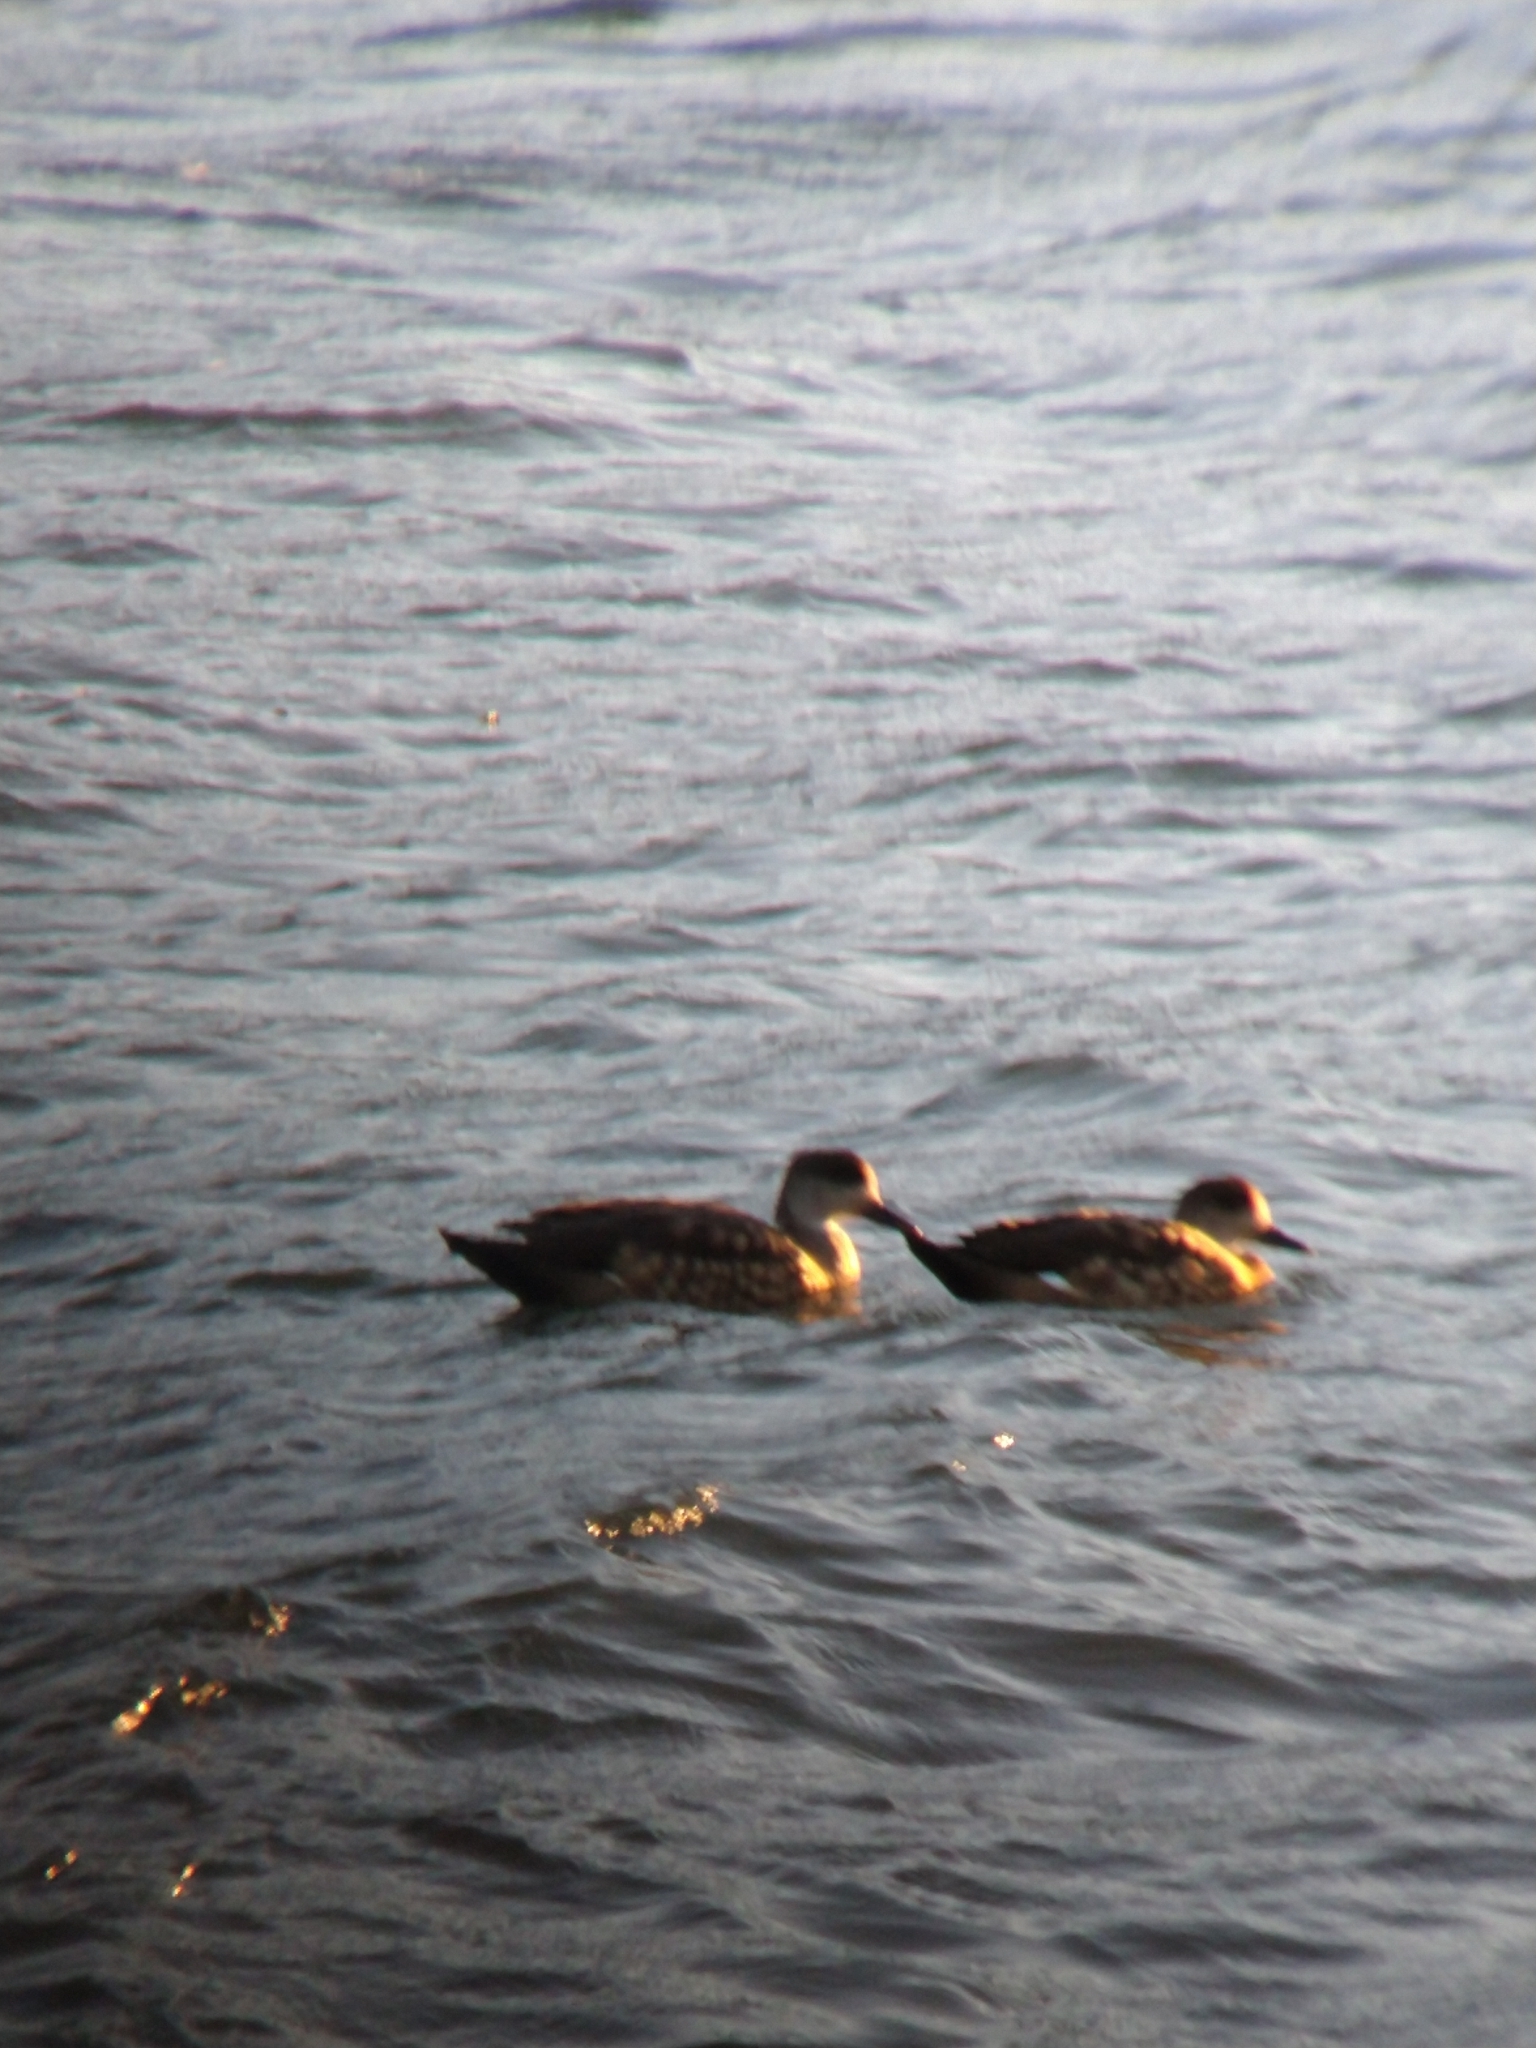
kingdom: Animalia
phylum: Chordata
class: Aves
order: Anseriformes
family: Anatidae
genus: Lophonetta
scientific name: Lophonetta specularioides
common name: Crested duck
